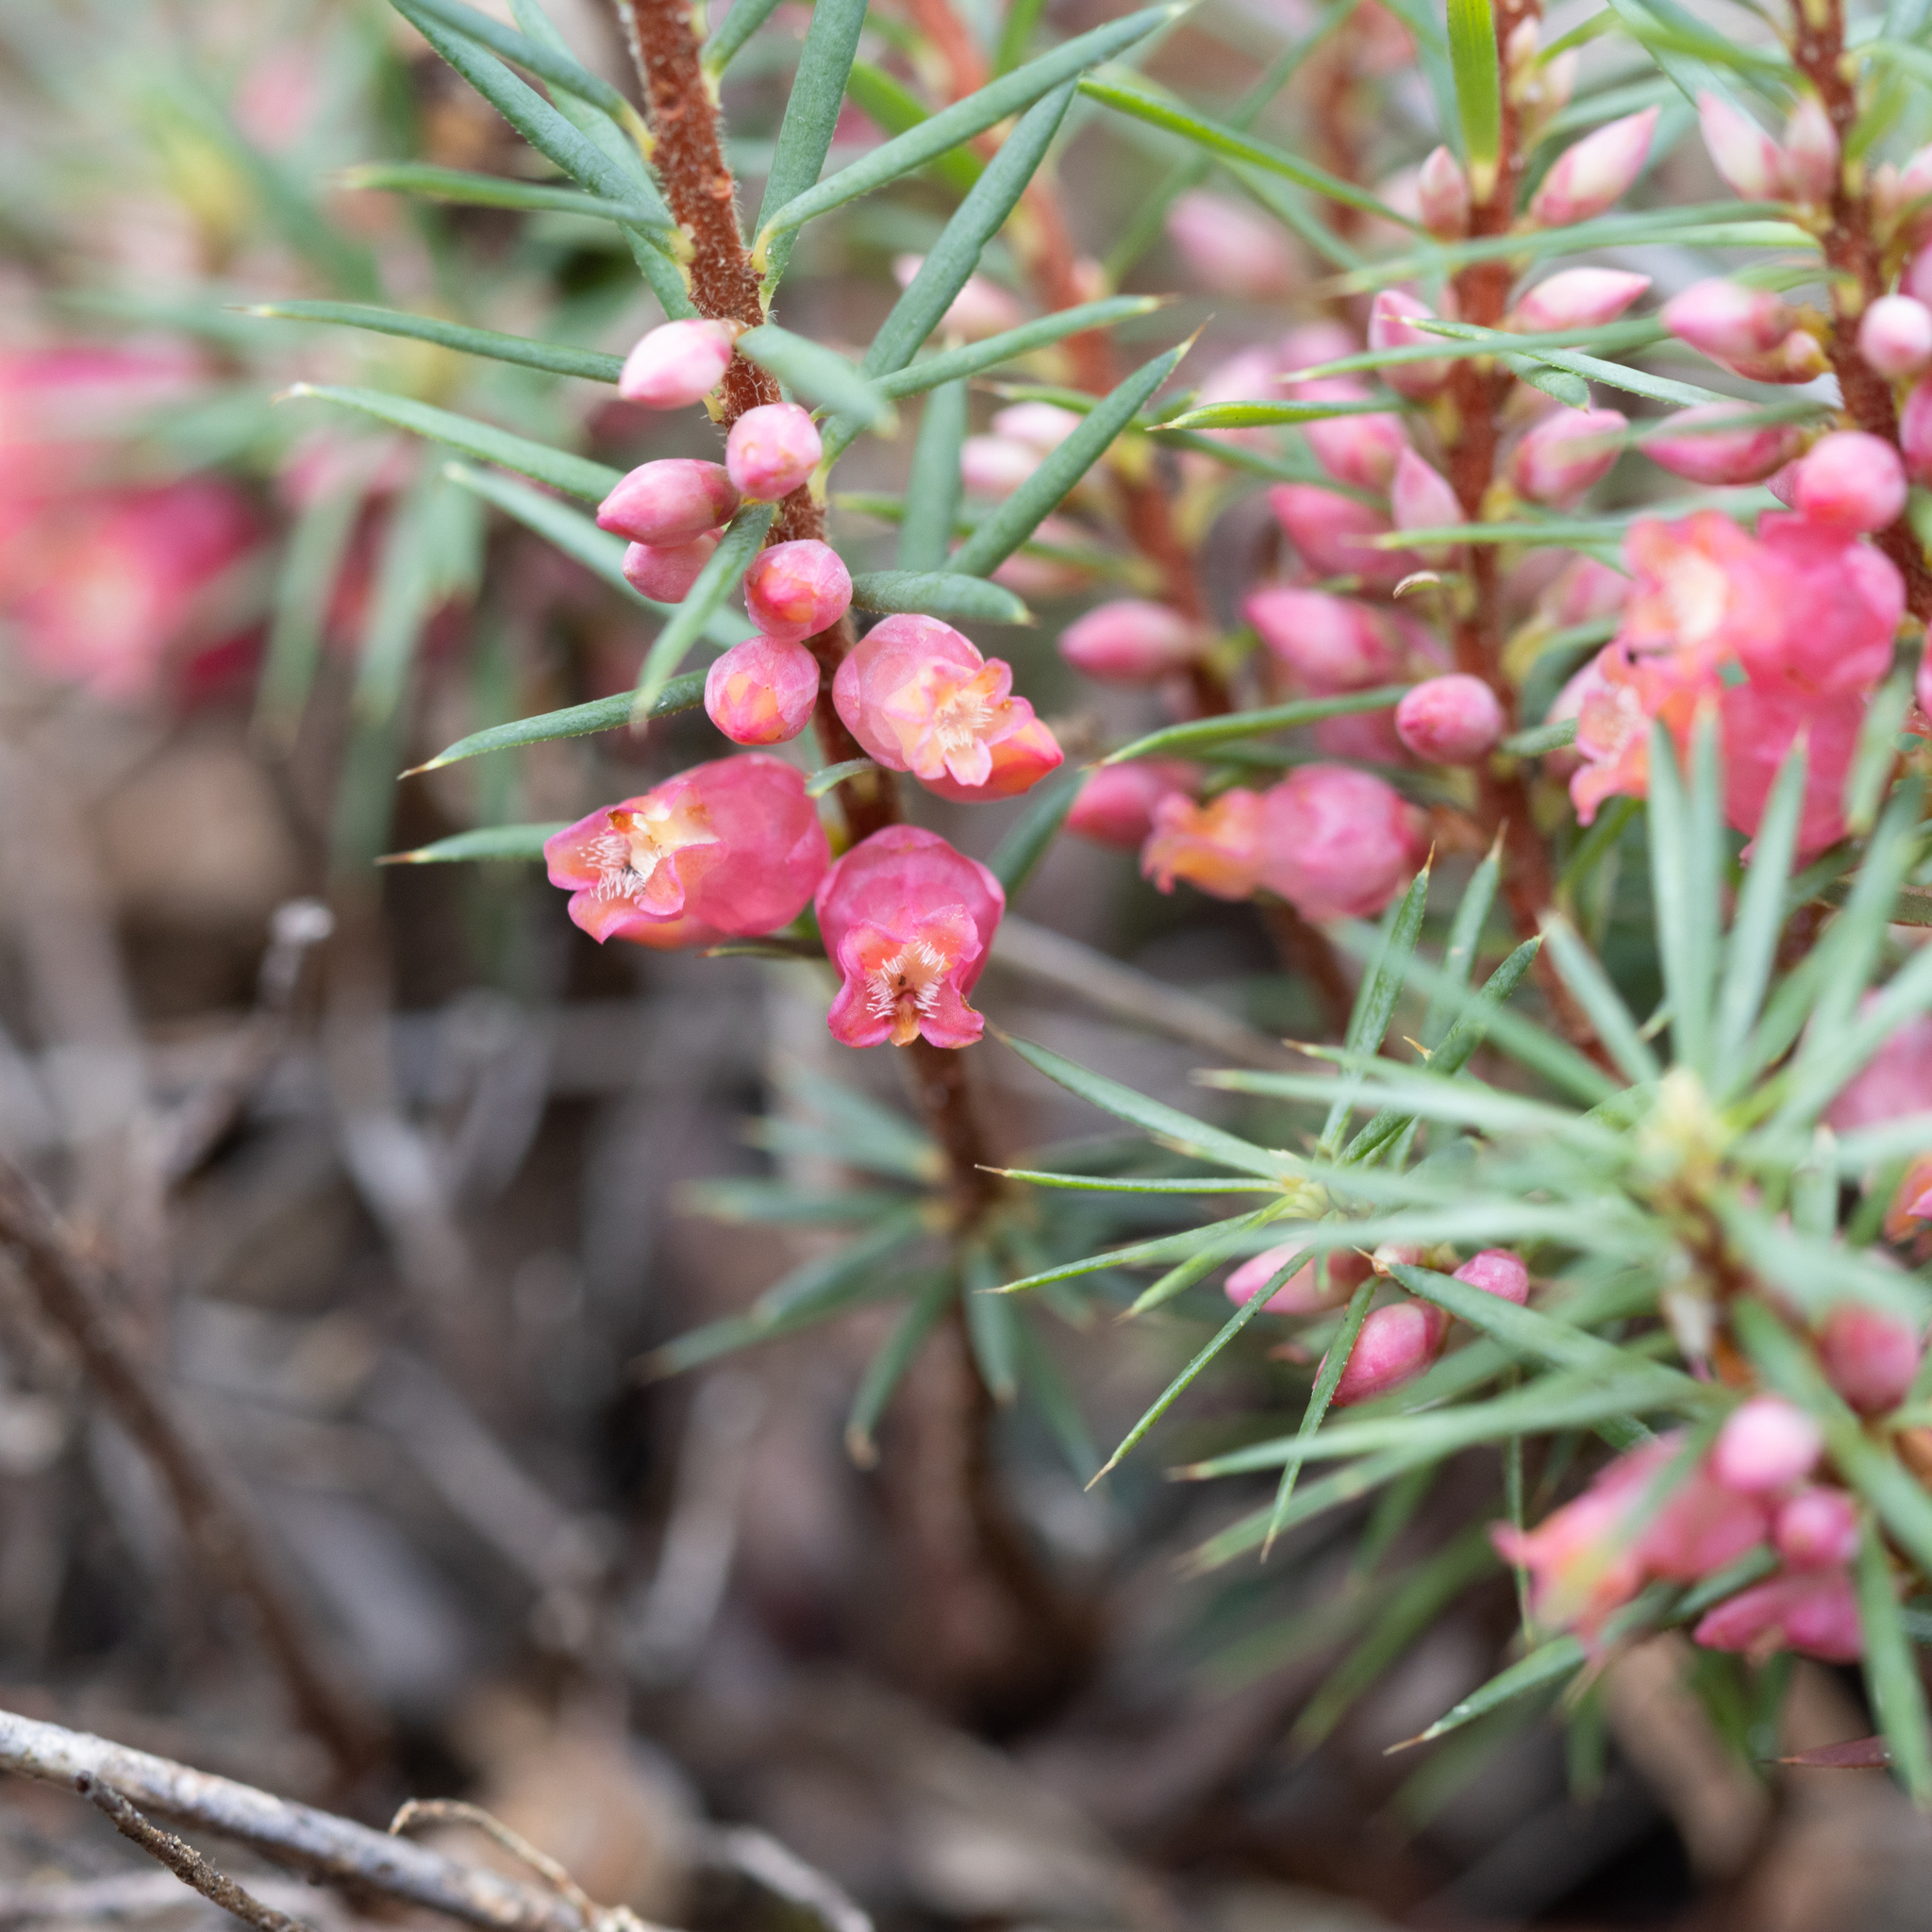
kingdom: Plantae
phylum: Tracheophyta
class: Magnoliopsida
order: Ericales
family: Ericaceae
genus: Brachyloma
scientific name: Brachyloma ericoides
